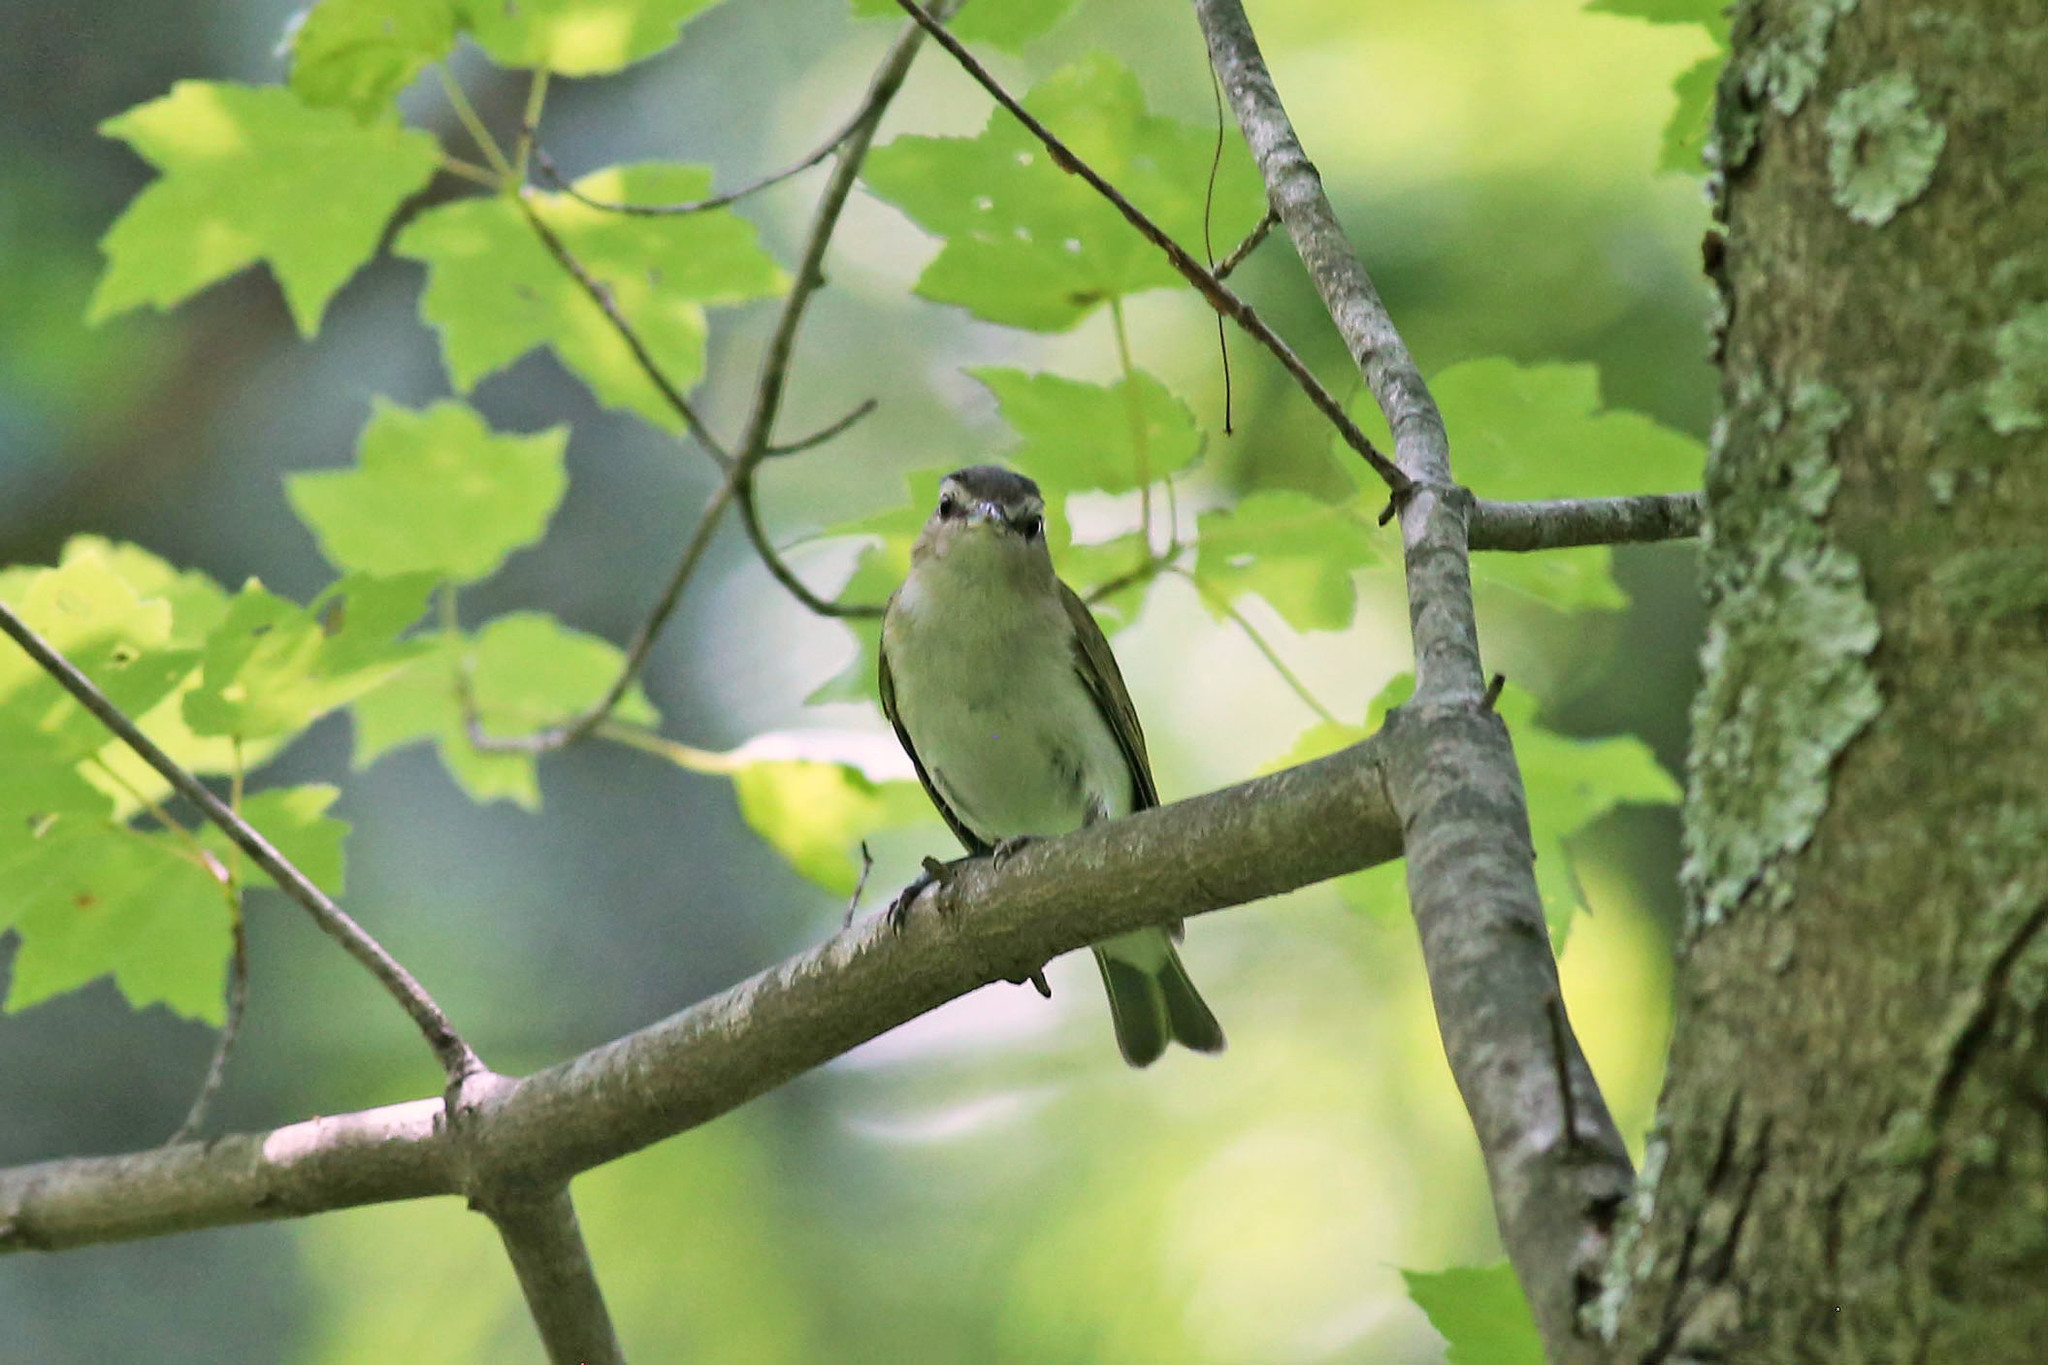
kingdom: Animalia
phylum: Chordata
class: Aves
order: Passeriformes
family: Vireonidae
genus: Vireo
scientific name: Vireo olivaceus
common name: Red-eyed vireo
